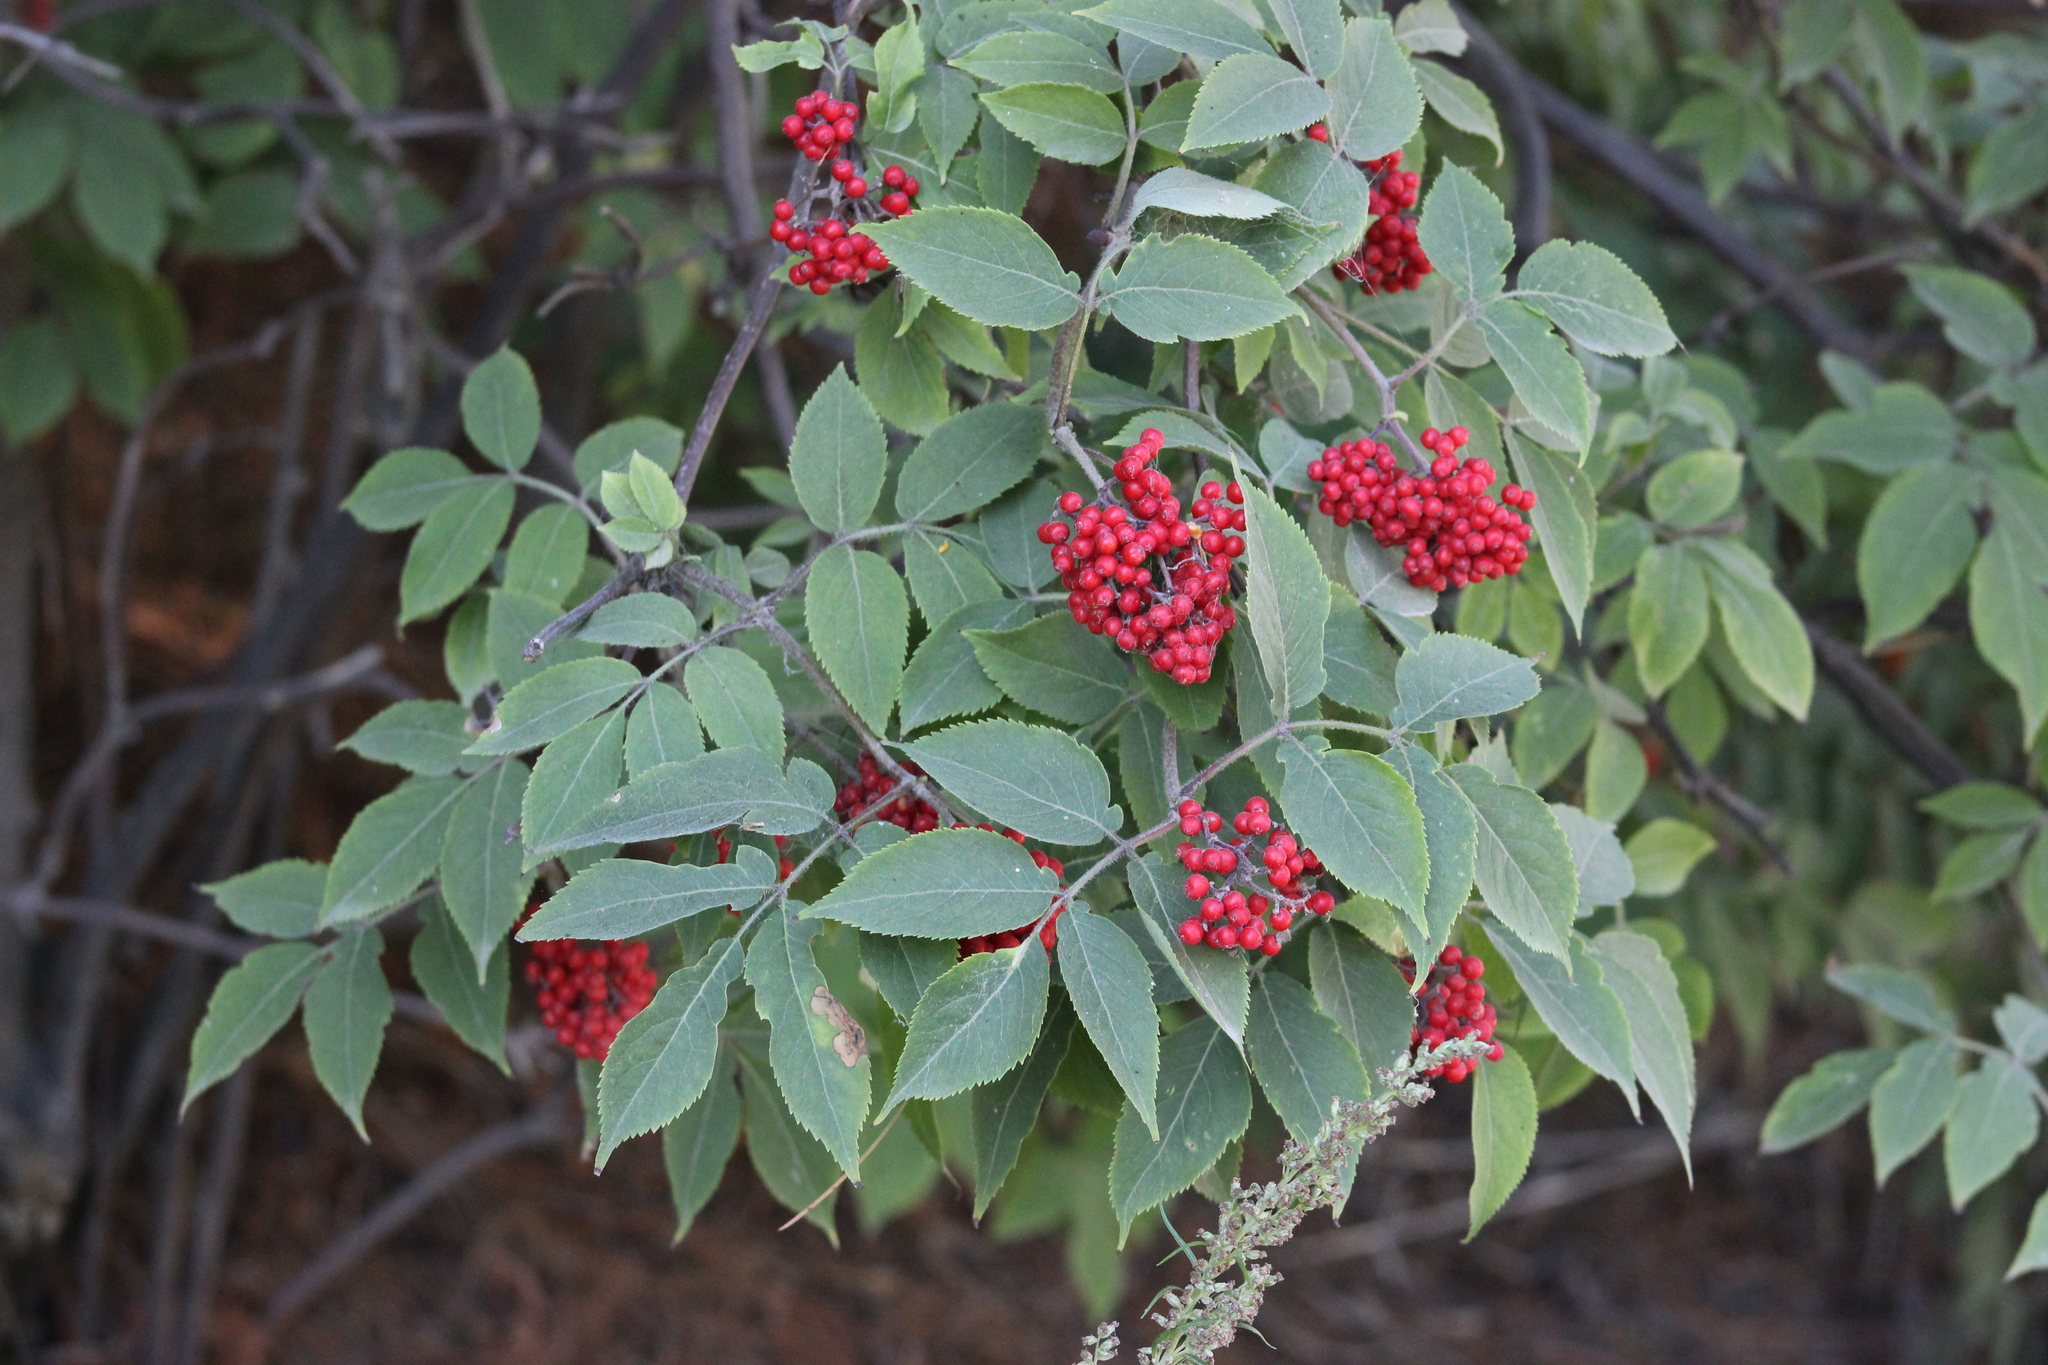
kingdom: Plantae
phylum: Tracheophyta
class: Magnoliopsida
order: Dipsacales
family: Viburnaceae
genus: Sambucus
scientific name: Sambucus sibirica
